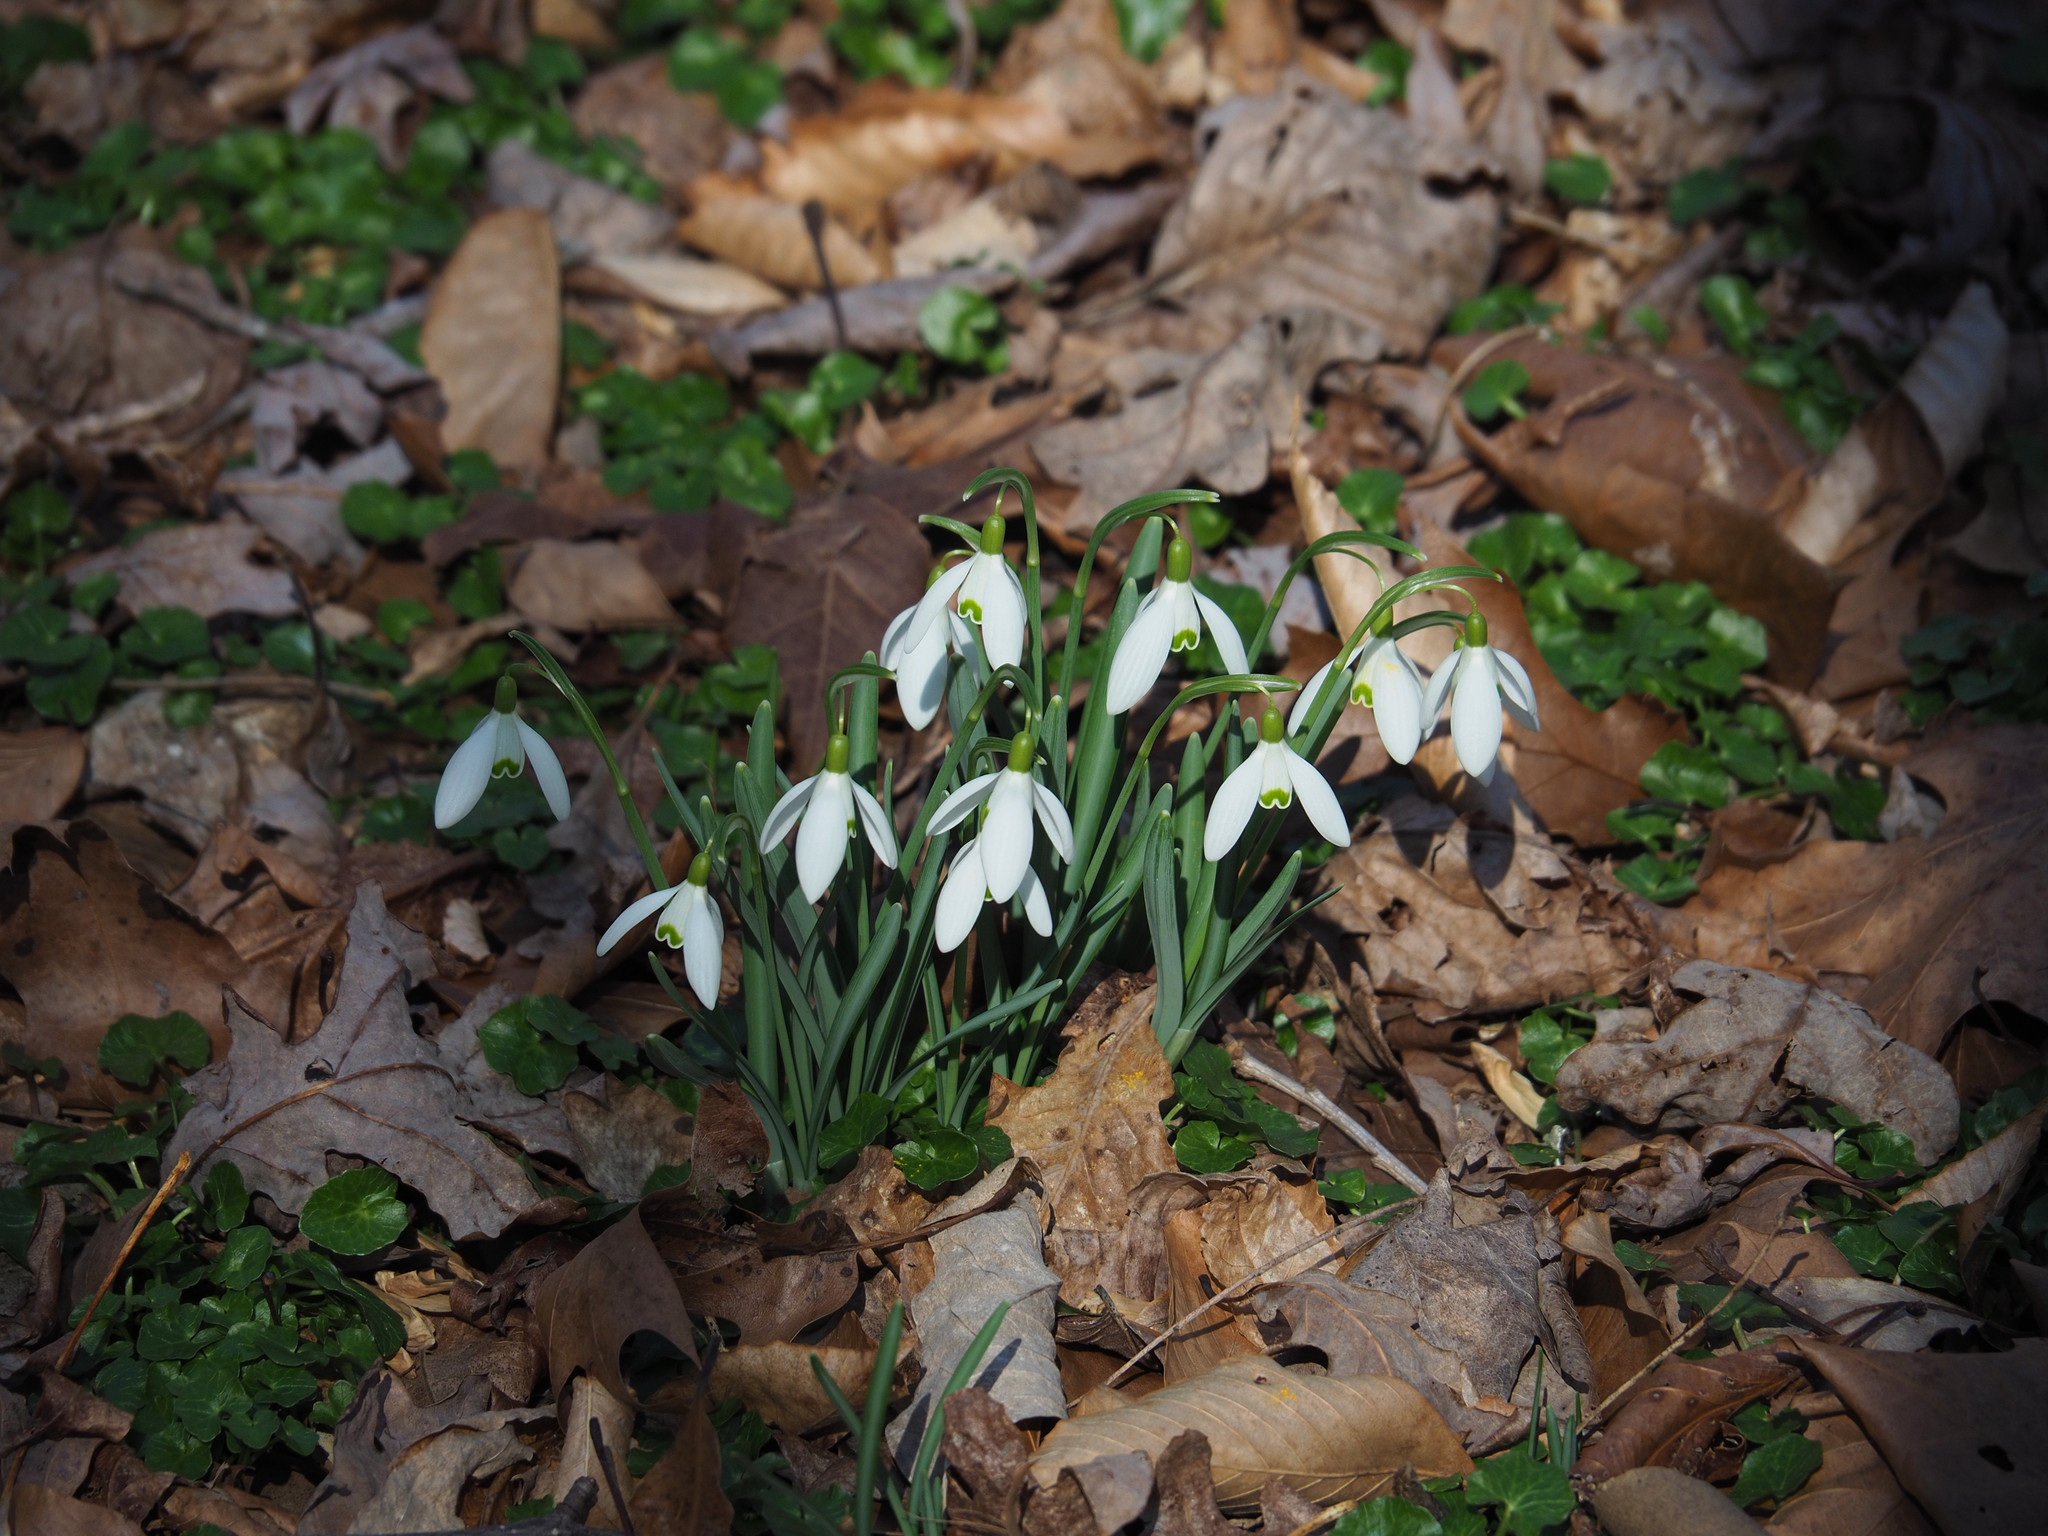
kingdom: Plantae
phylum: Tracheophyta
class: Liliopsida
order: Asparagales
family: Amaryllidaceae
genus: Galanthus
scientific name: Galanthus nivalis
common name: Snowdrop
